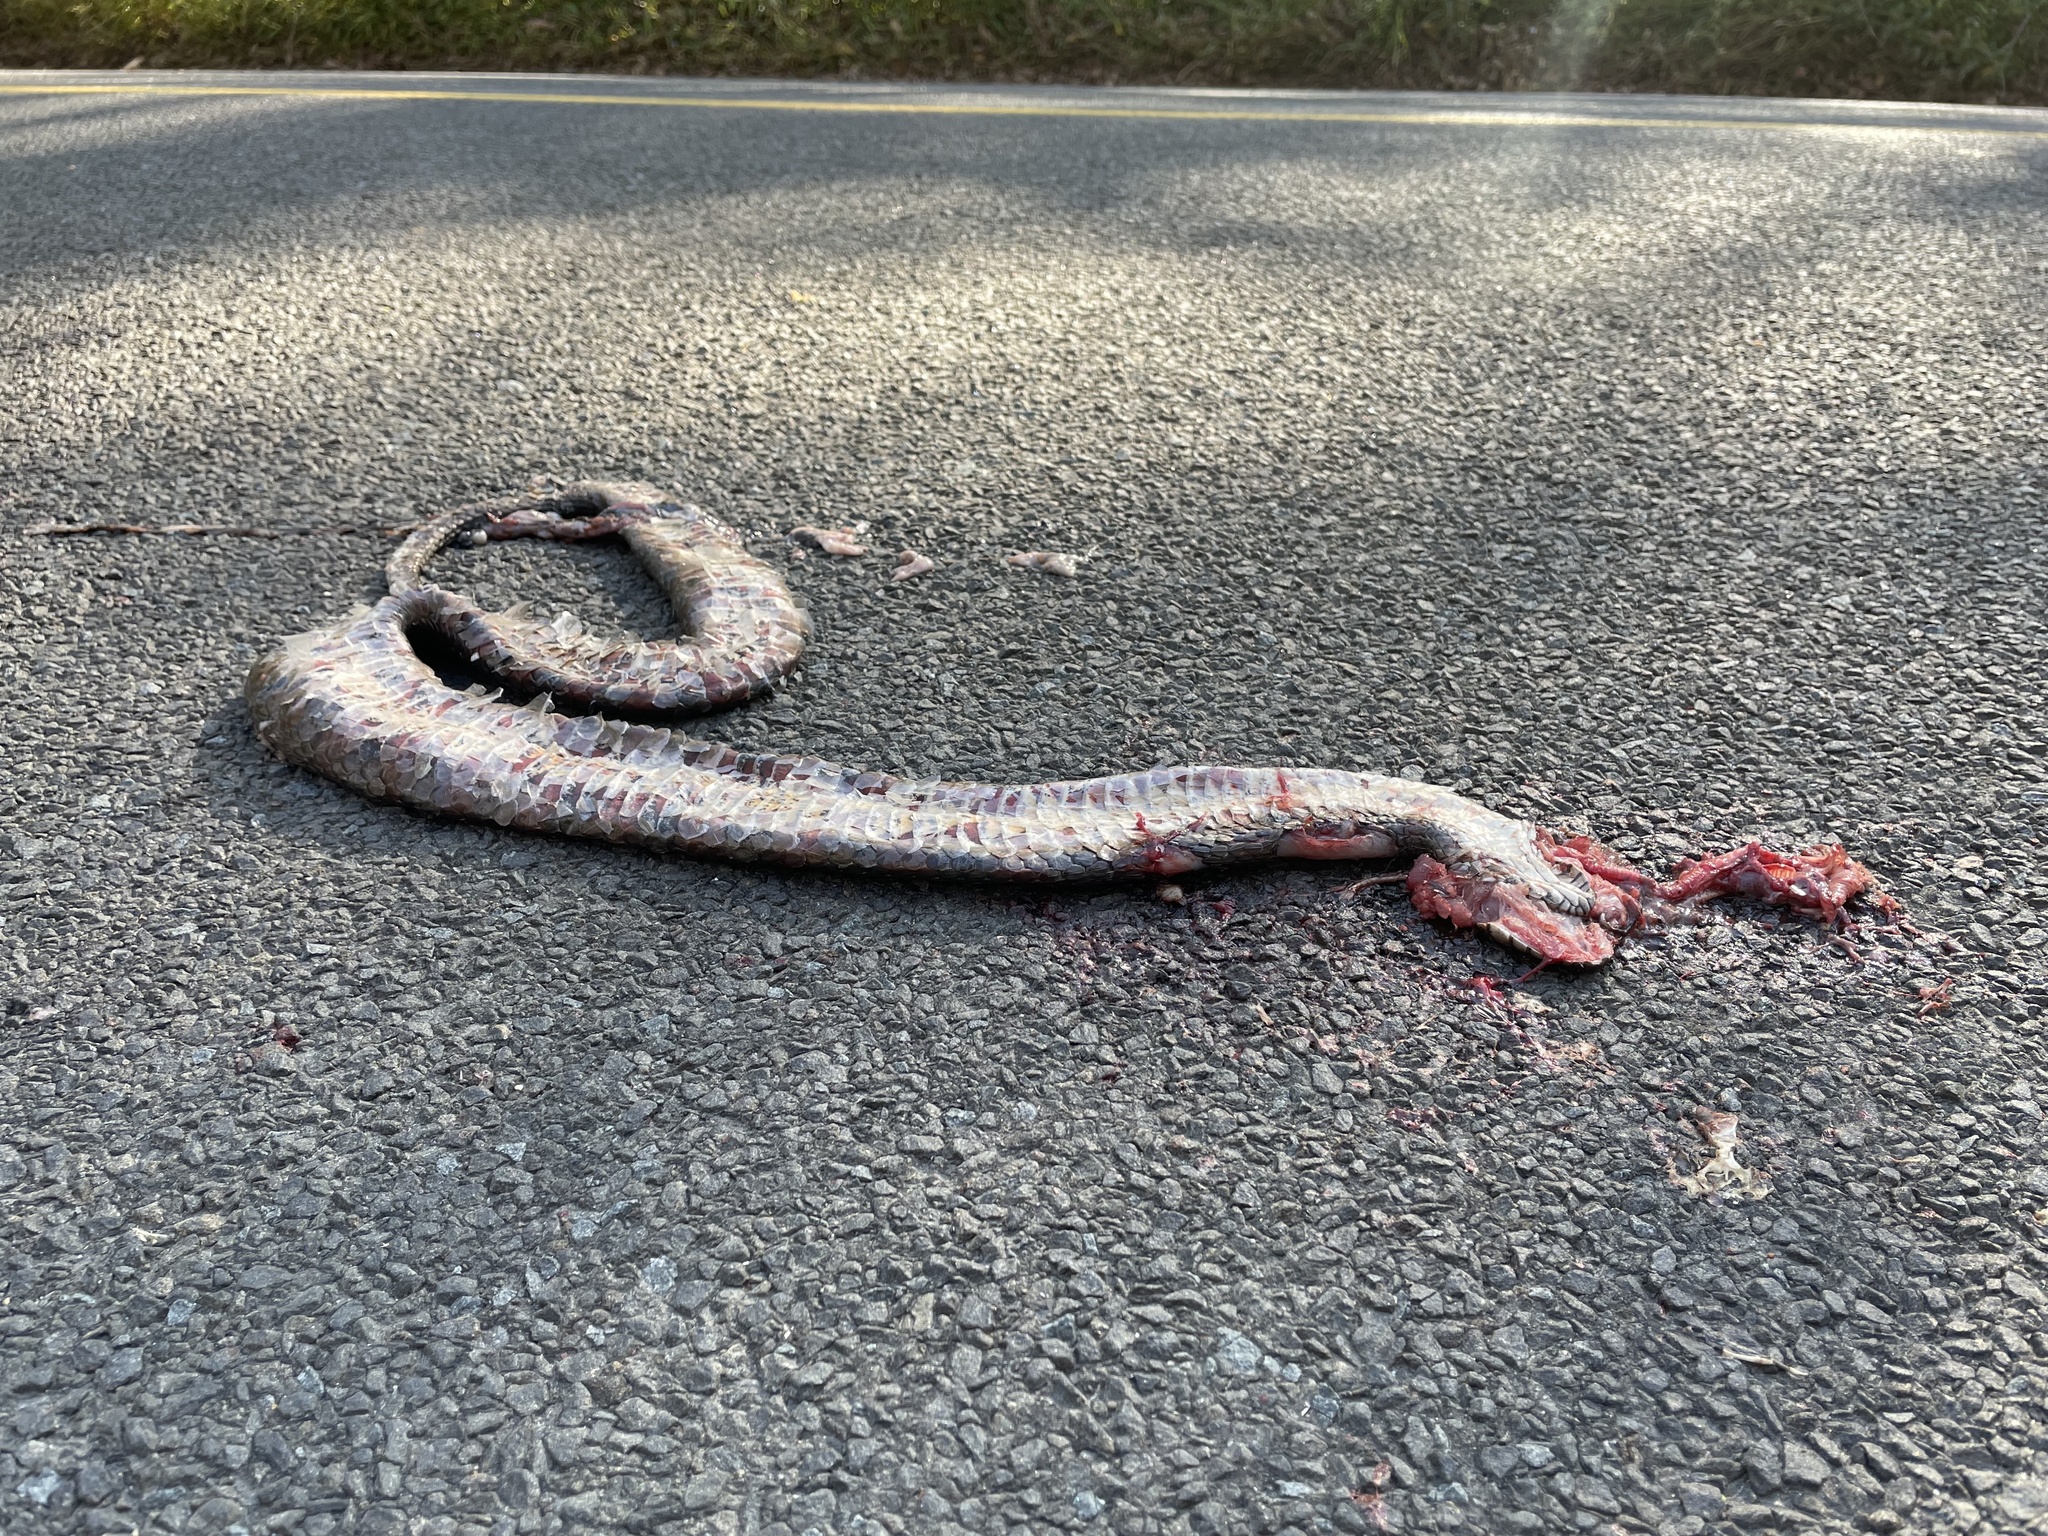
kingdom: Animalia
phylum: Chordata
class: Squamata
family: Colubridae
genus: Nerodia
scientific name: Nerodia sipedon
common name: Northern water snake
